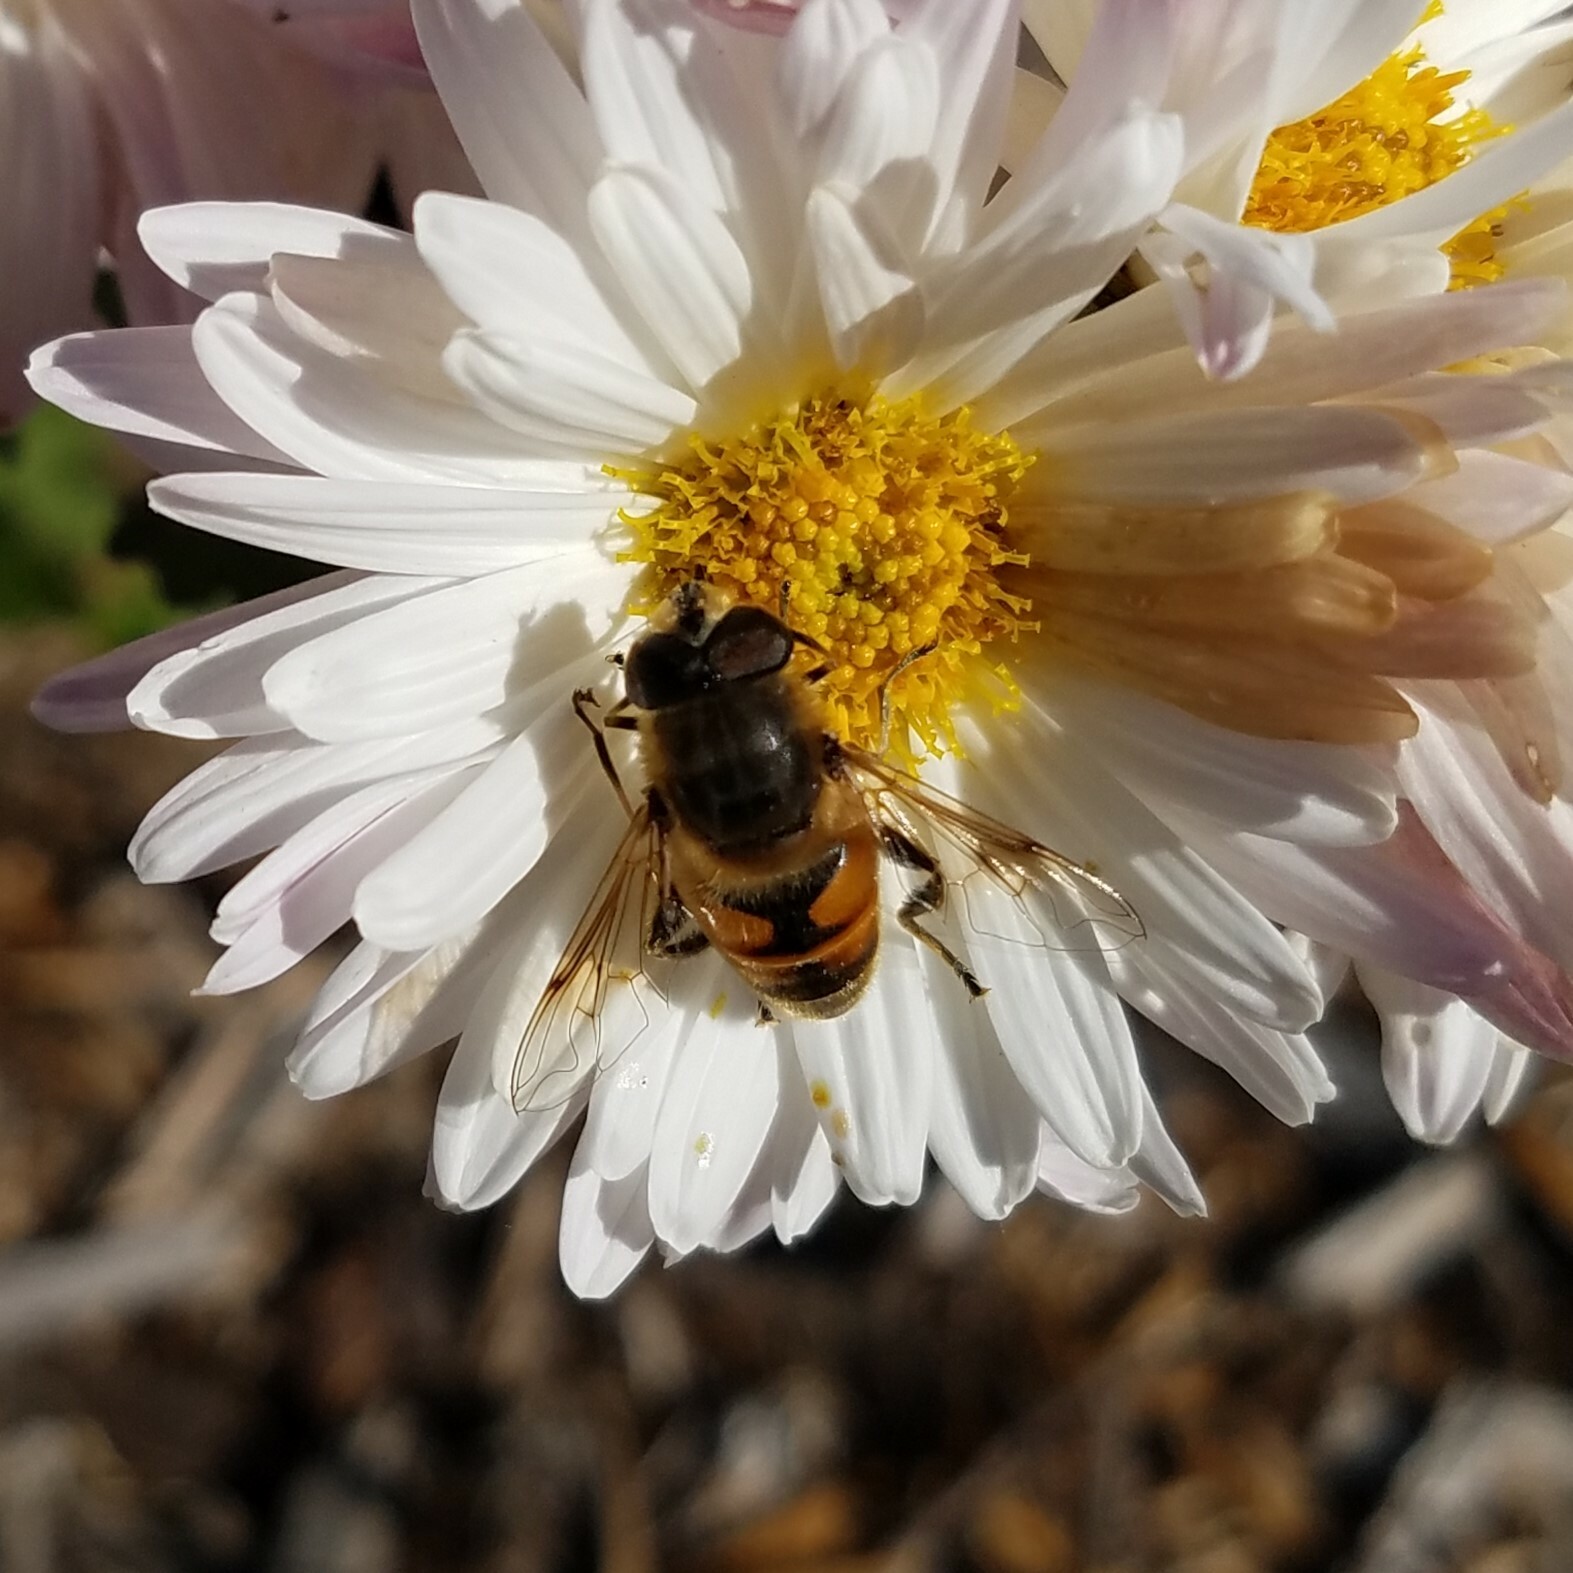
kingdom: Animalia
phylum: Arthropoda
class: Insecta
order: Diptera
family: Syrphidae
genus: Eristalis
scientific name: Eristalis tenax
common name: Drone fly
